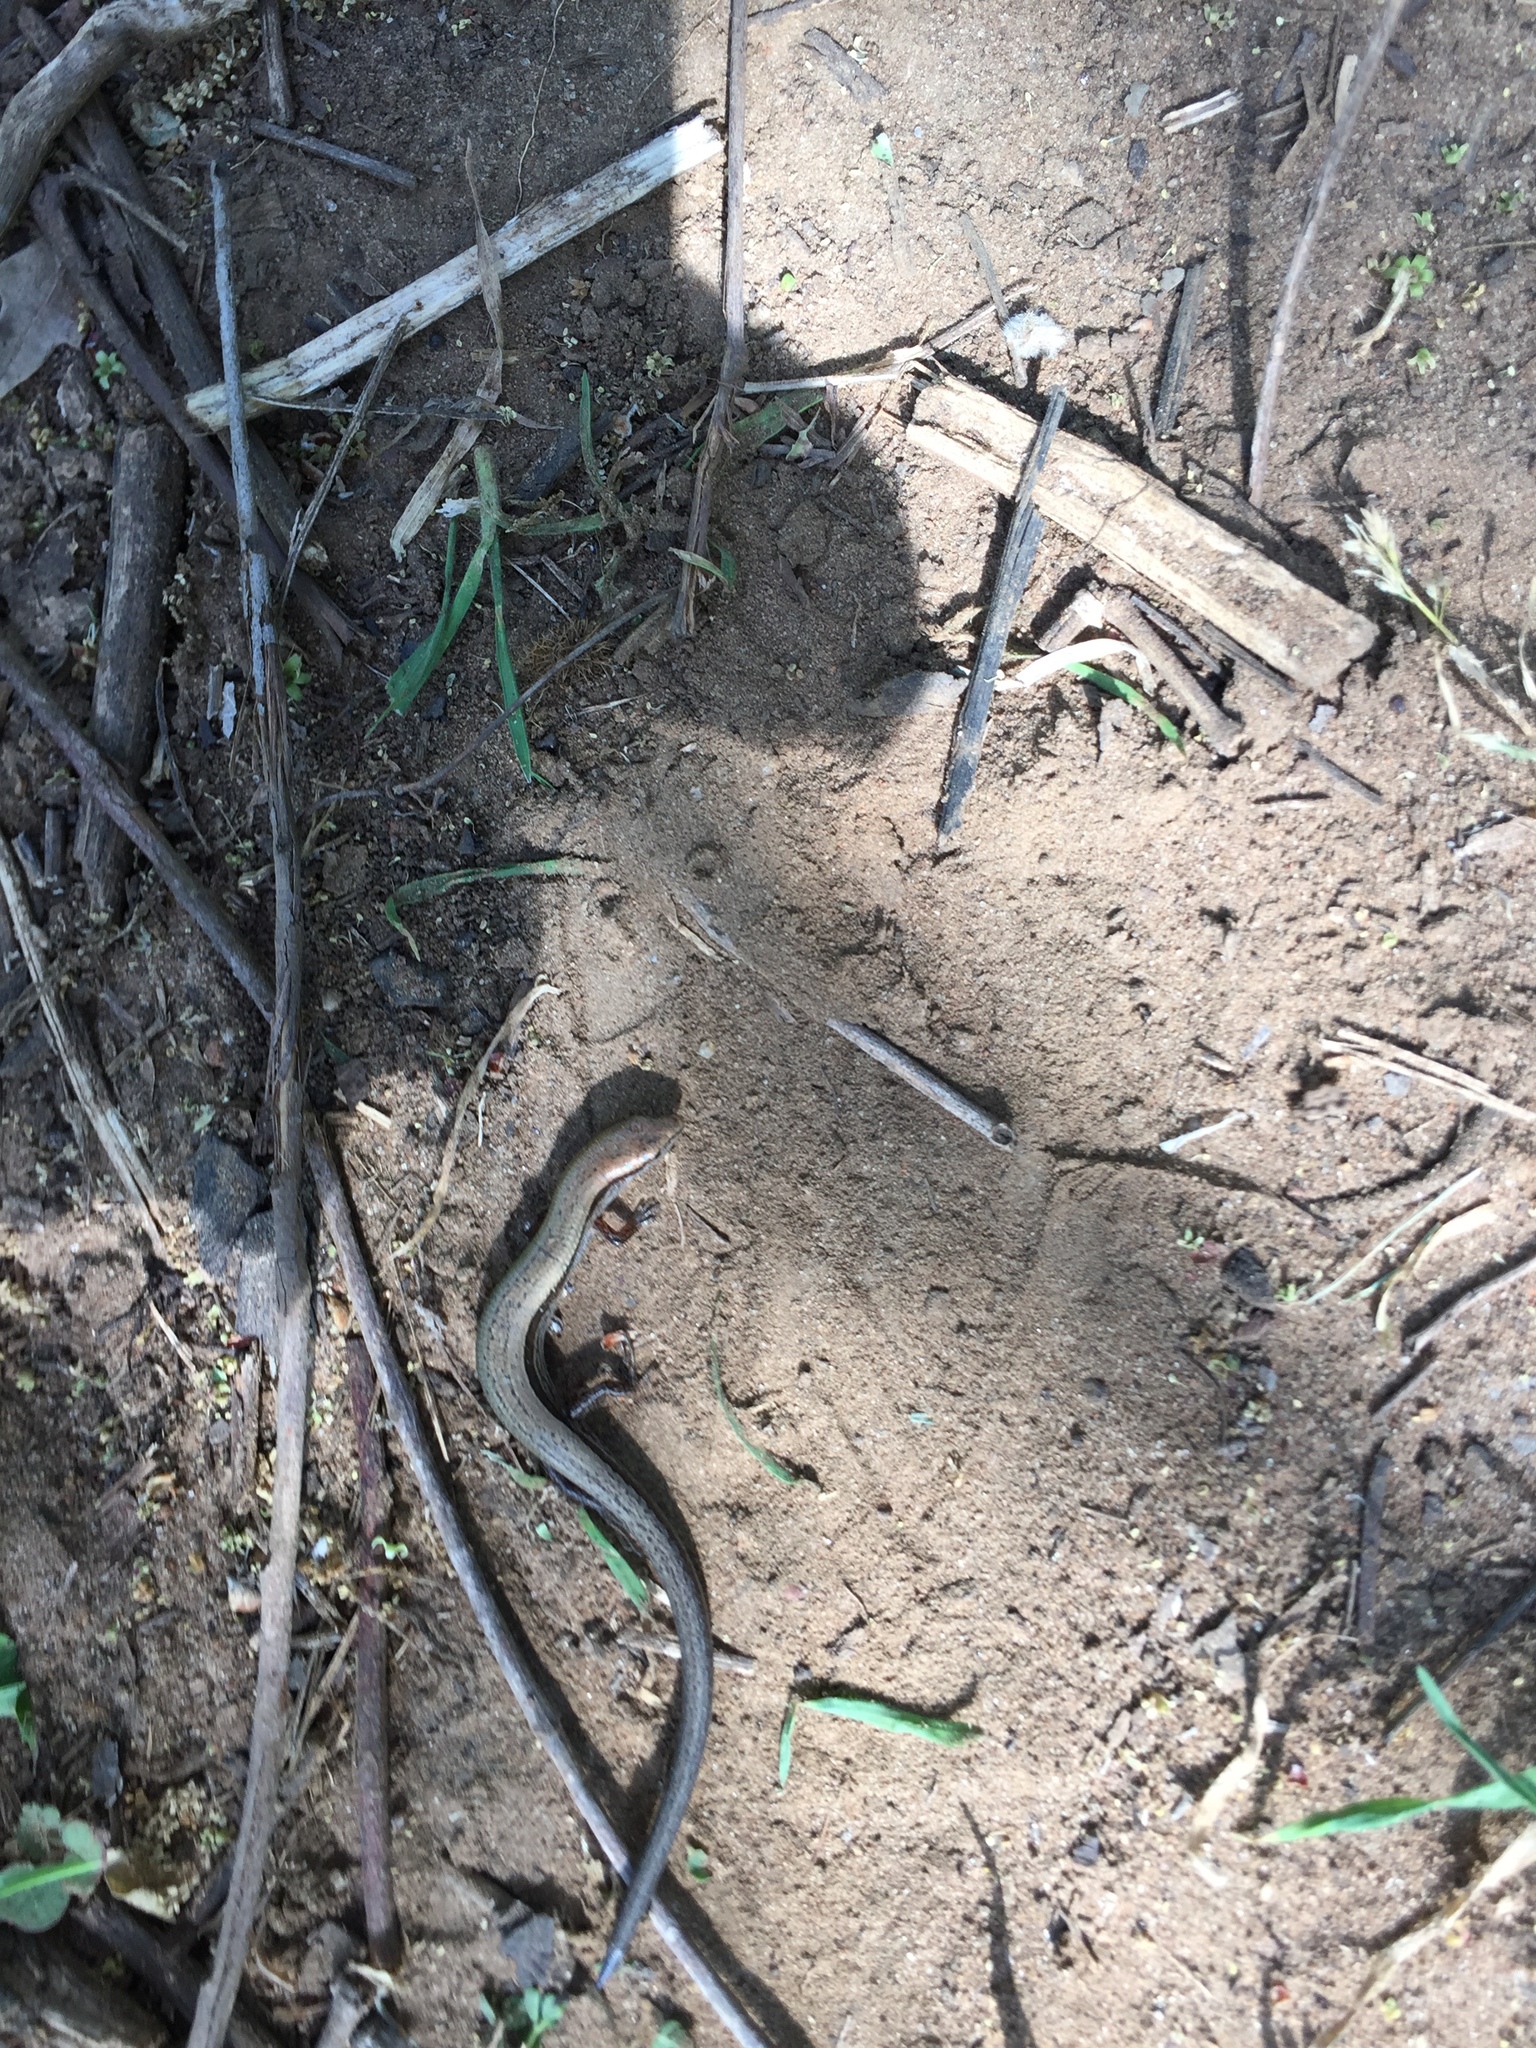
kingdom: Animalia
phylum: Chordata
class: Squamata
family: Scincidae
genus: Scincella
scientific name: Scincella lateralis
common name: Ground skink
